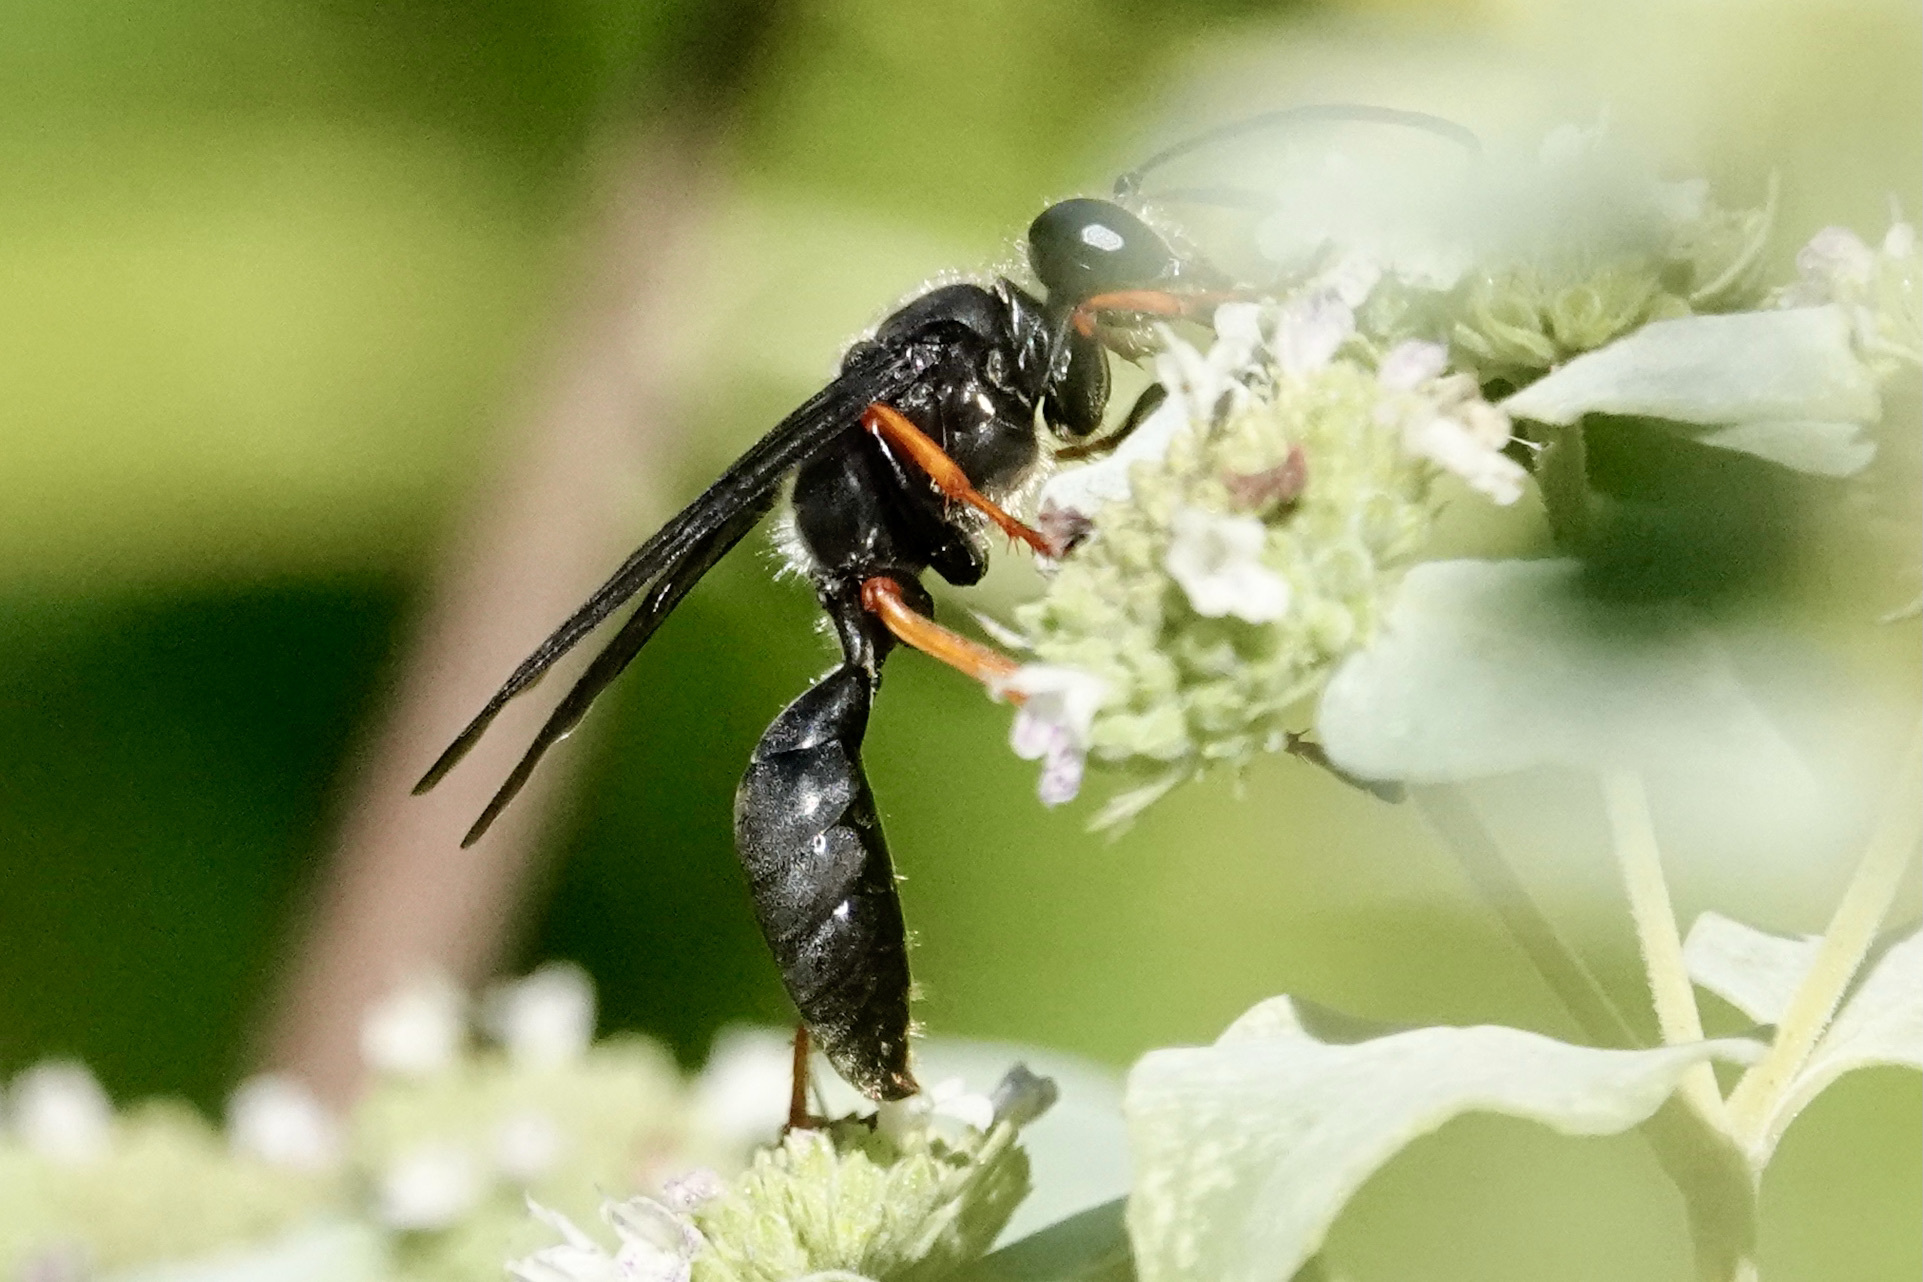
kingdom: Animalia
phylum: Arthropoda
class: Insecta
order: Hymenoptera
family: Sphecidae
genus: Sphex
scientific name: Sphex nudus
